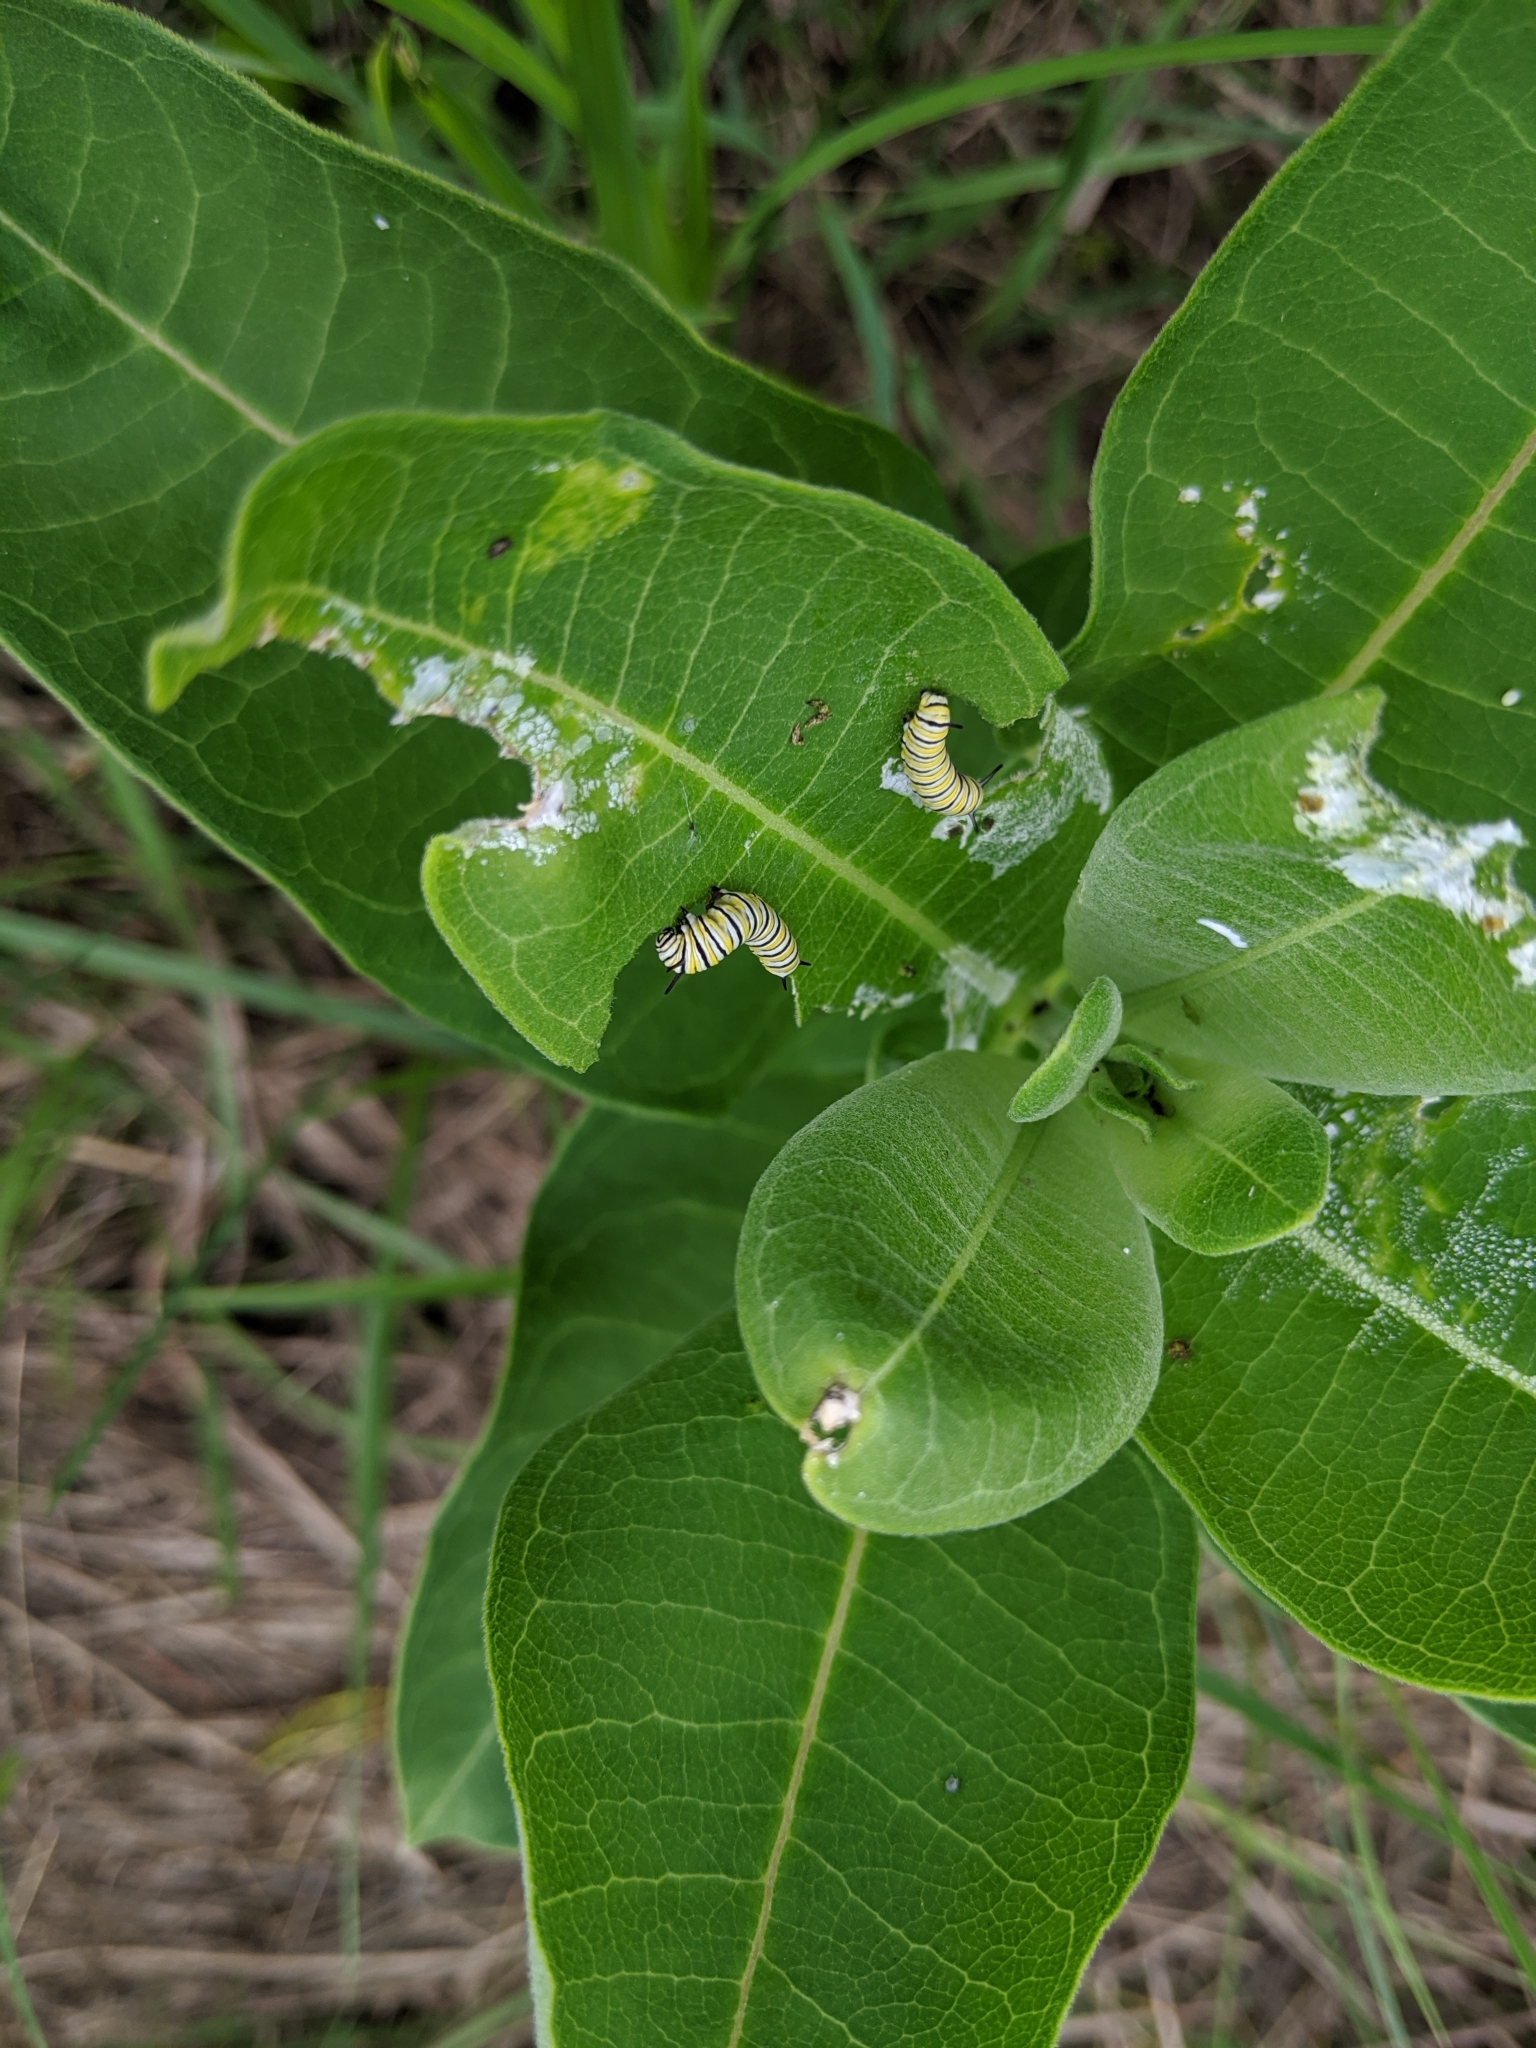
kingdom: Animalia
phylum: Arthropoda
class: Insecta
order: Lepidoptera
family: Nymphalidae
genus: Danaus
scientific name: Danaus plexippus
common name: Monarch
